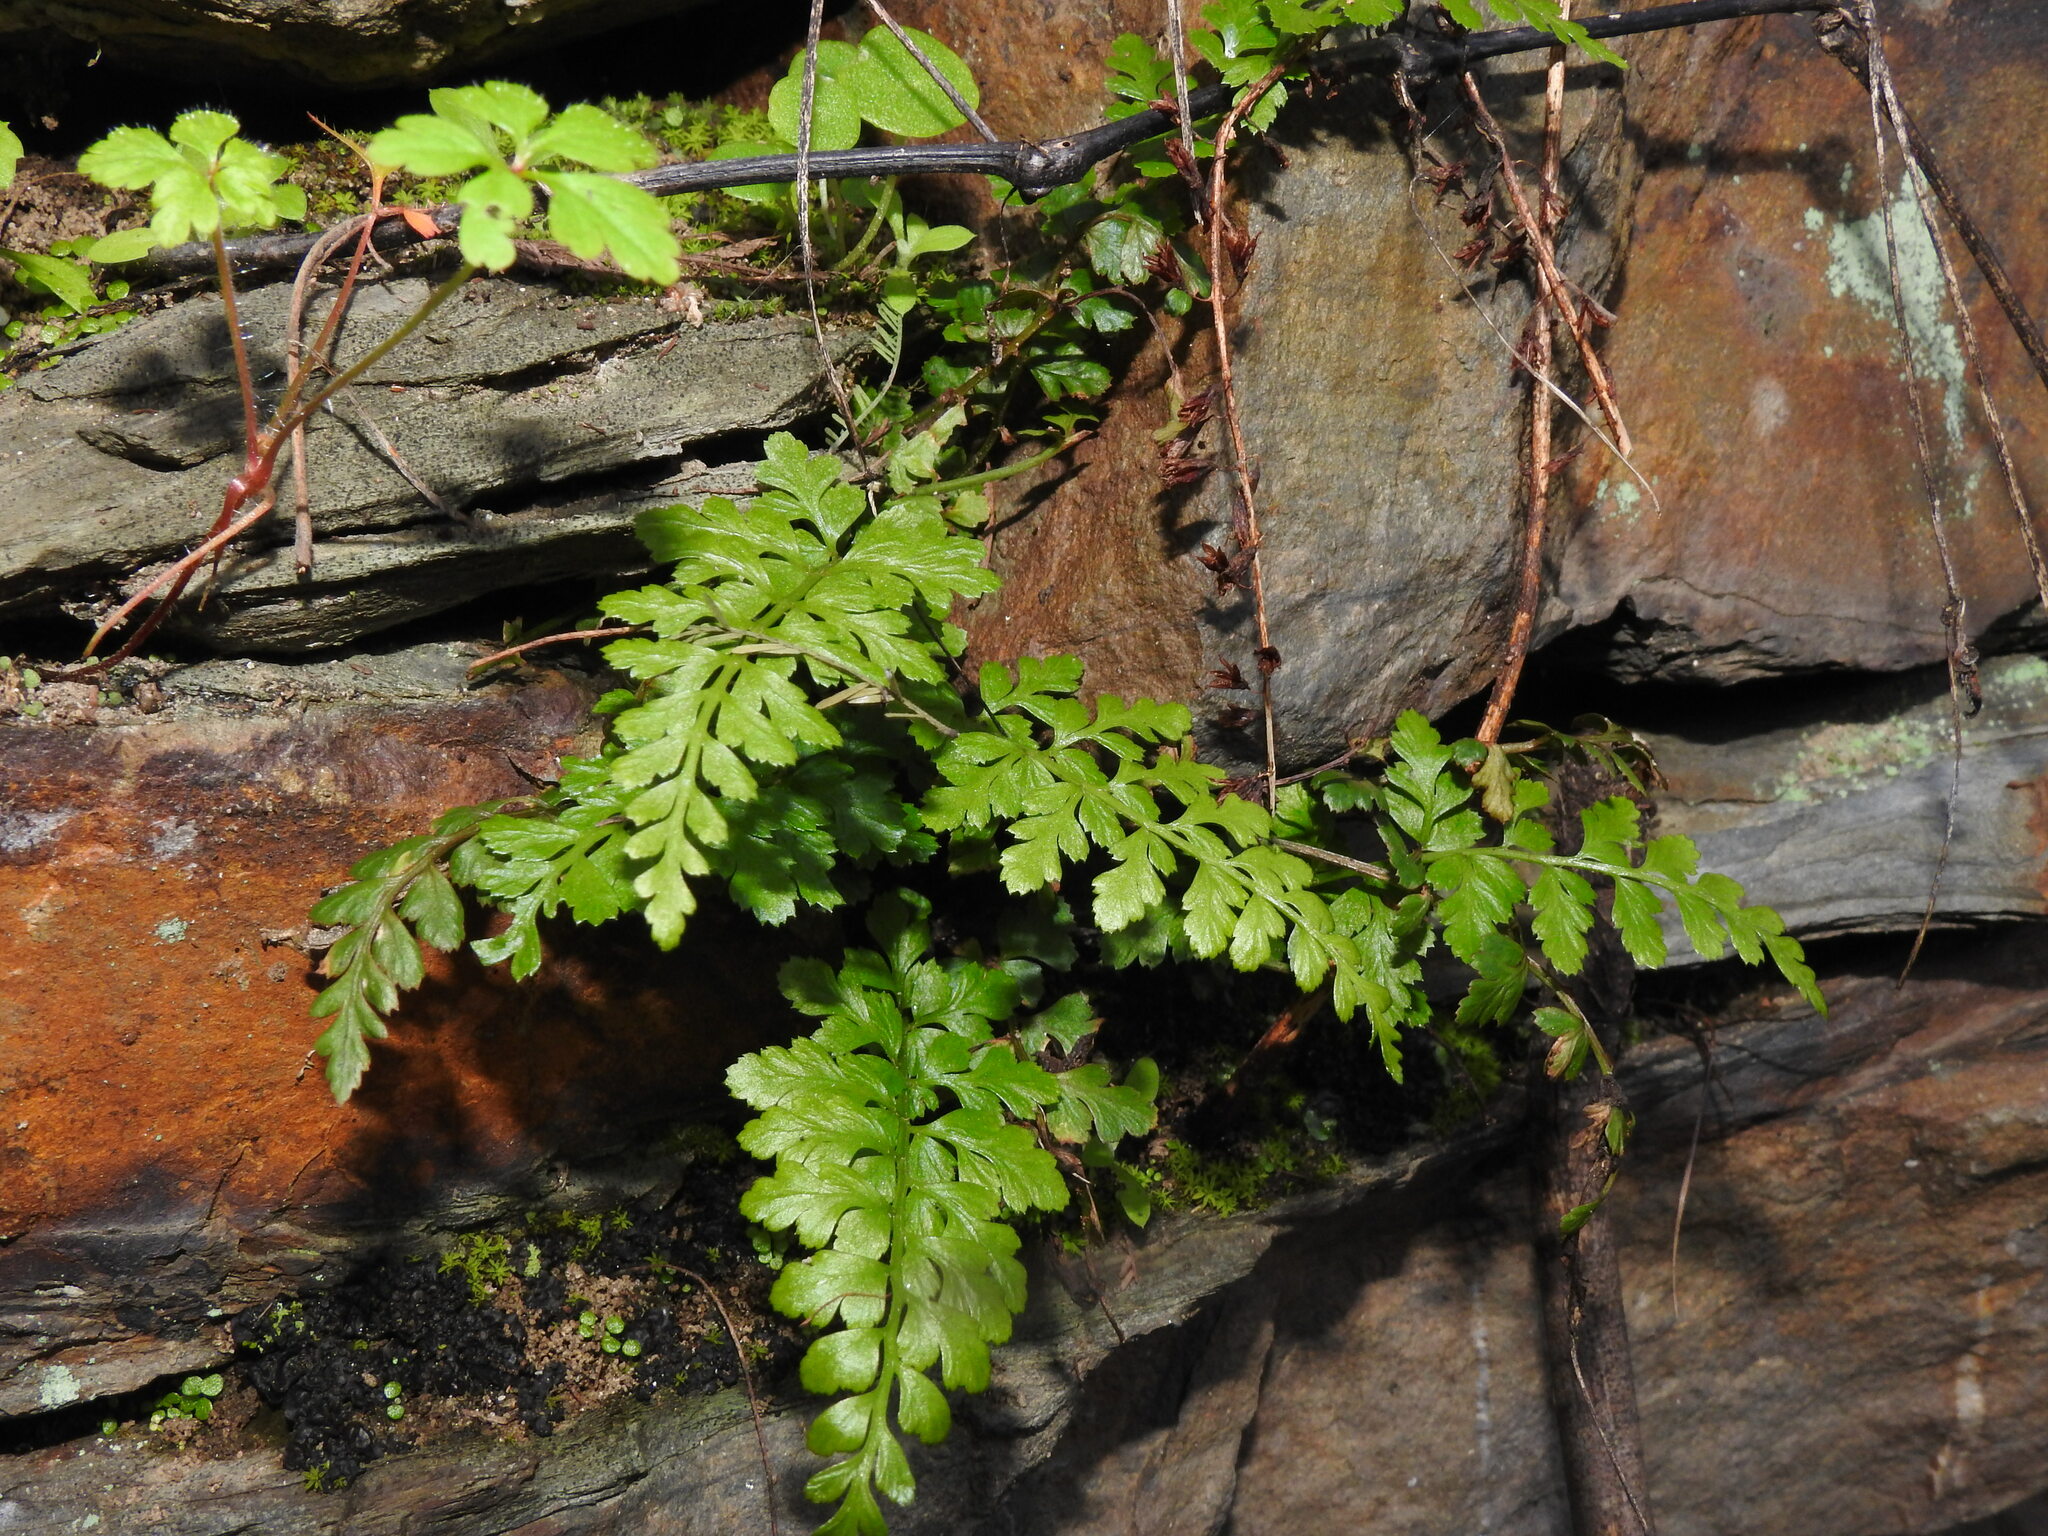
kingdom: Plantae
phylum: Tracheophyta
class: Polypodiopsida
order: Polypodiales
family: Aspleniaceae
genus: Asplenium
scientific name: Asplenium obovatum
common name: Lanceolate spleenwort
